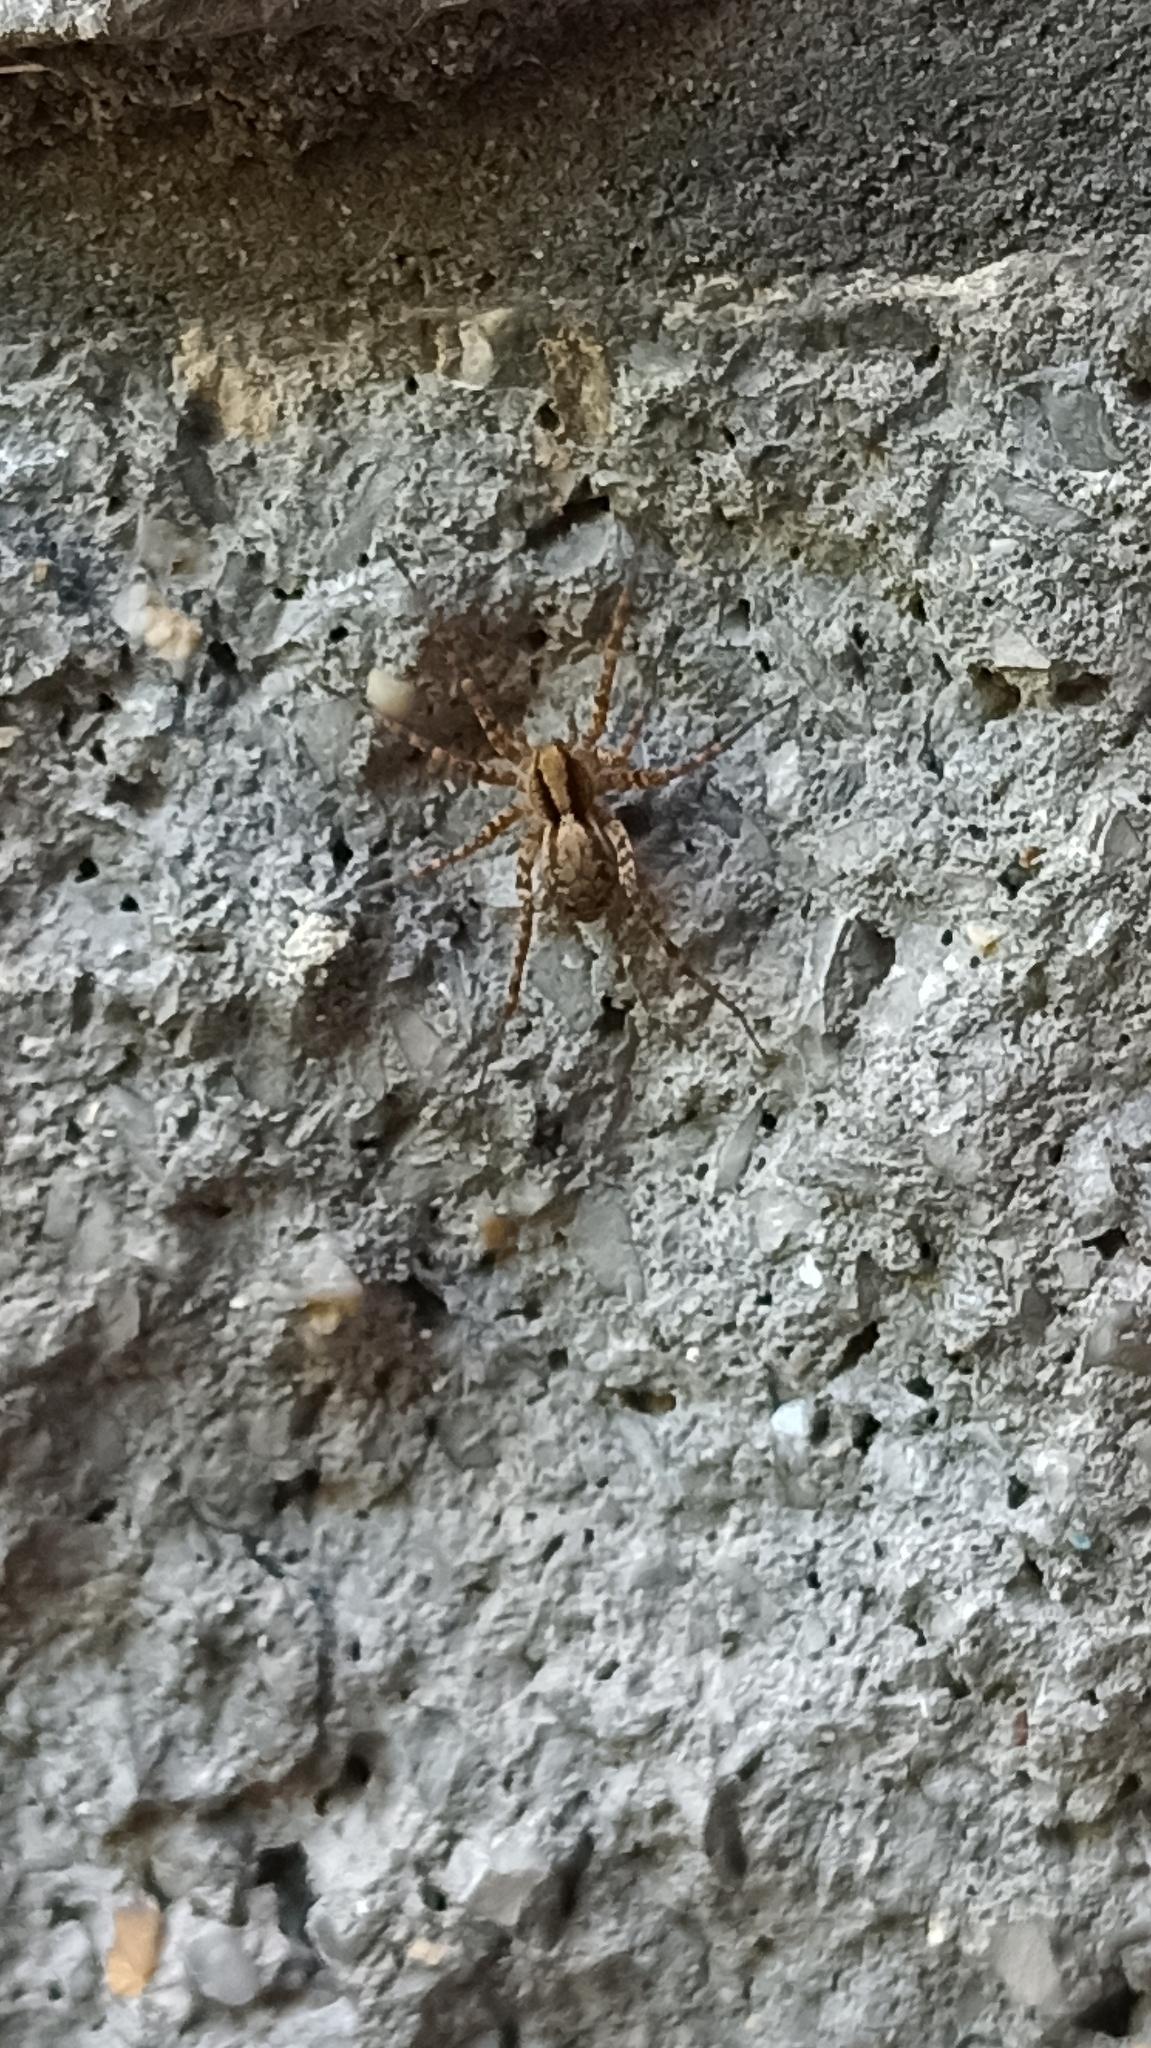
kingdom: Animalia
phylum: Arthropoda
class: Arachnida
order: Araneae
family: Lycosidae
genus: Pardosa
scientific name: Pardosa
